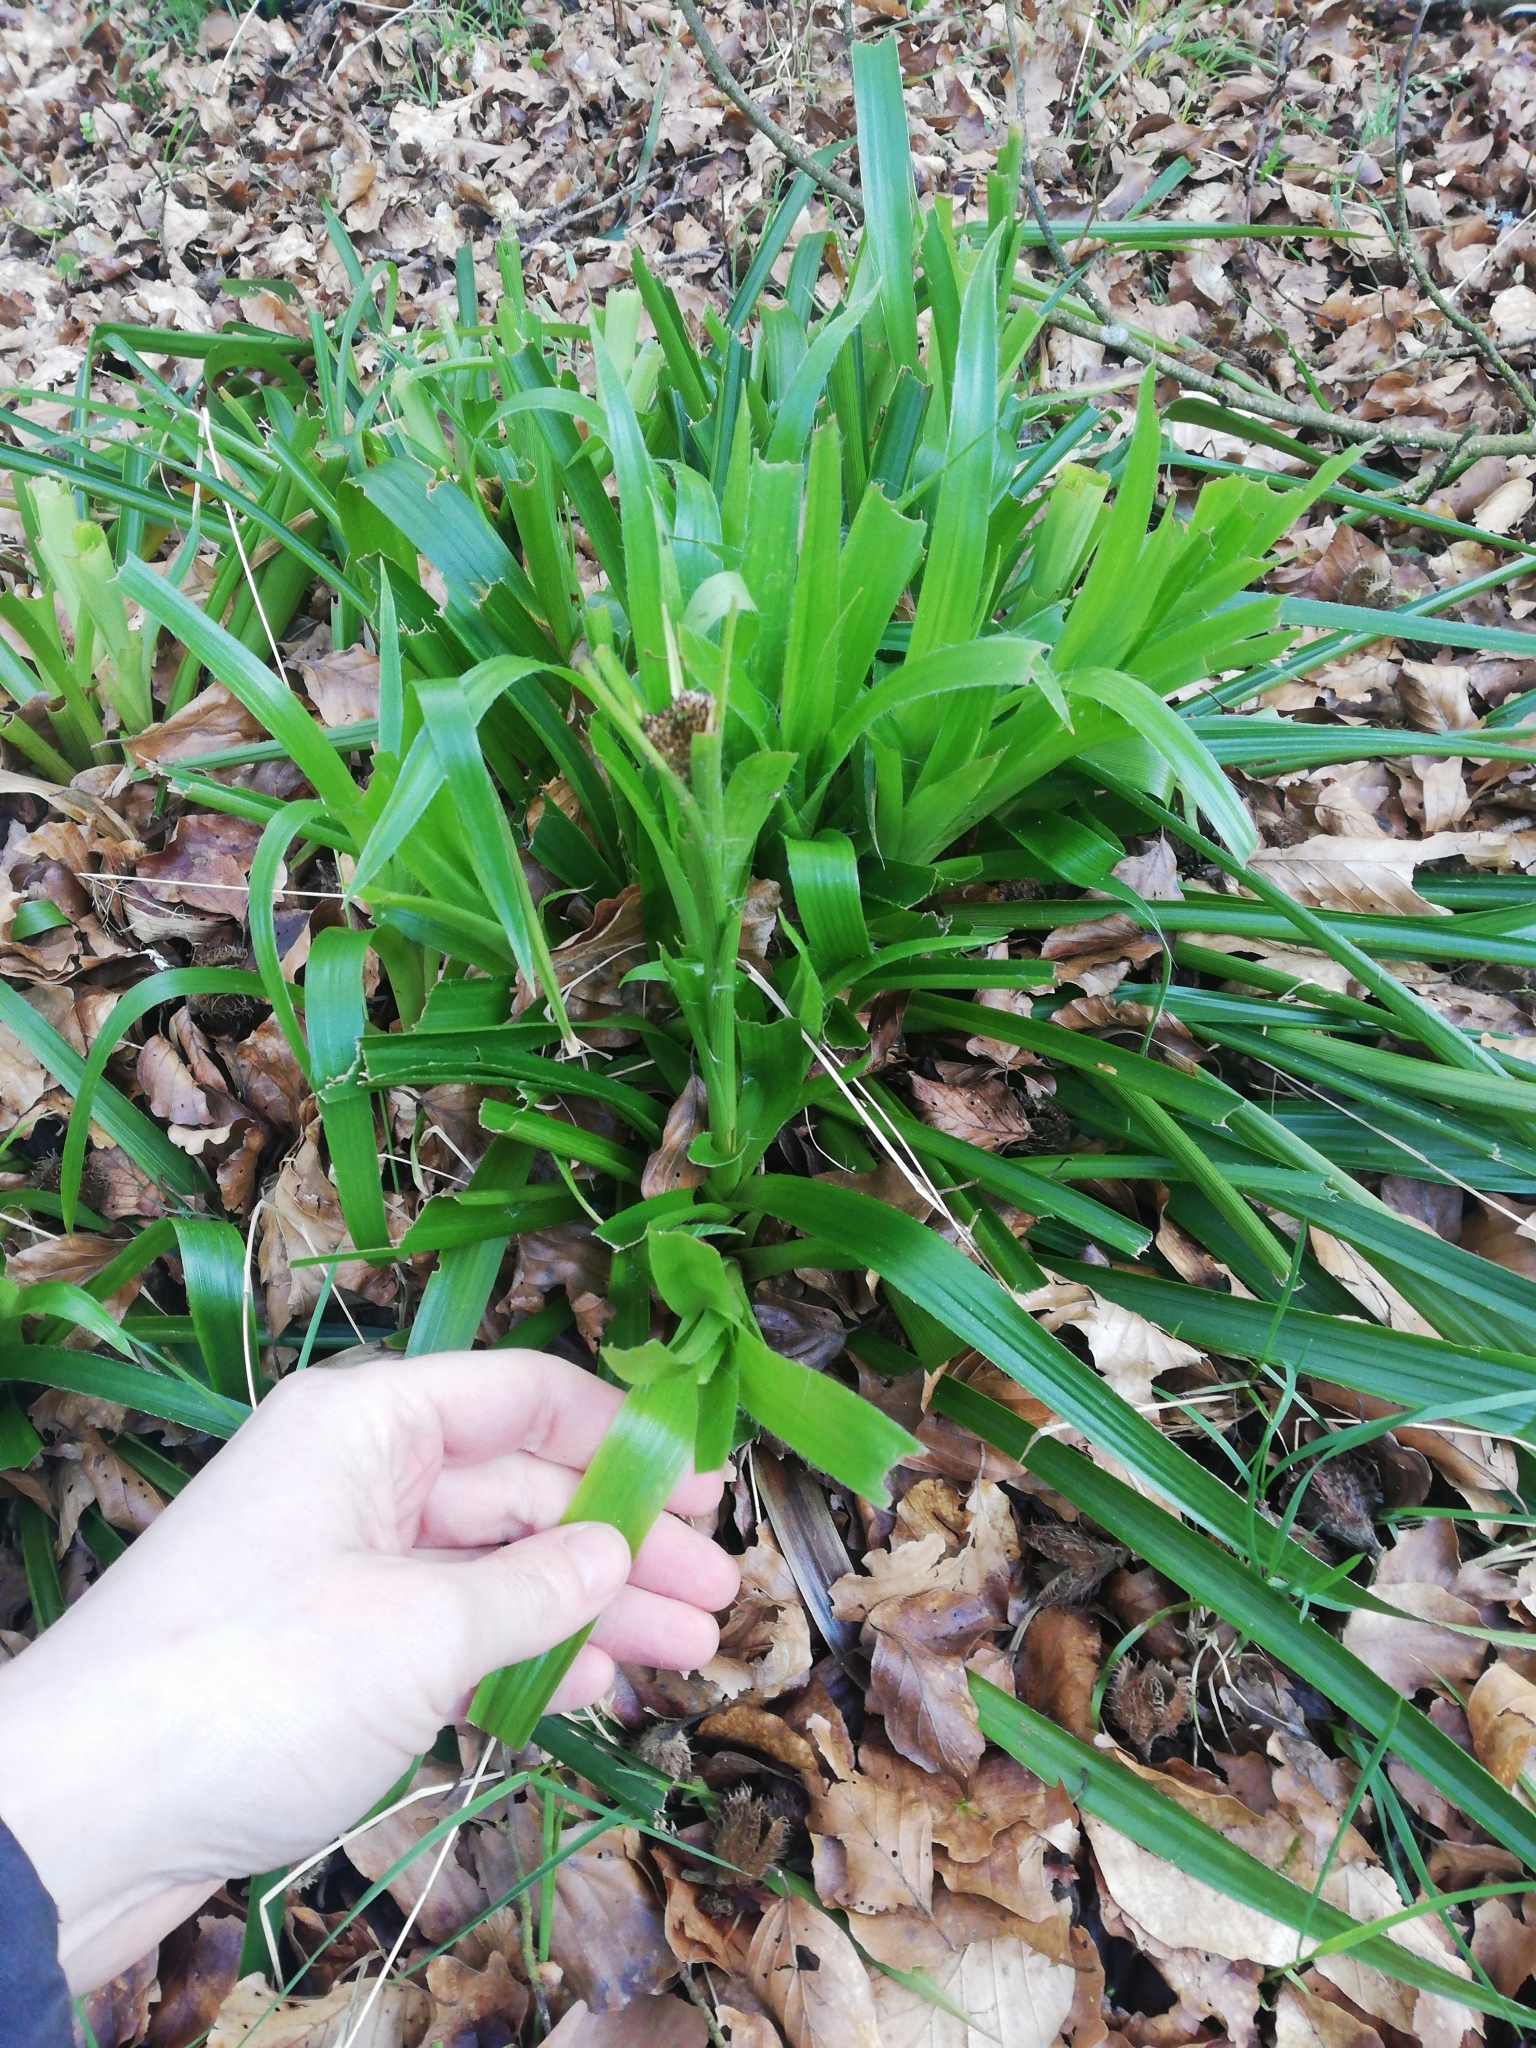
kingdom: Plantae
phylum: Tracheophyta
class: Liliopsida
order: Poales
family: Juncaceae
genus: Luzula
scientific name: Luzula sylvatica
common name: Great wood-rush
